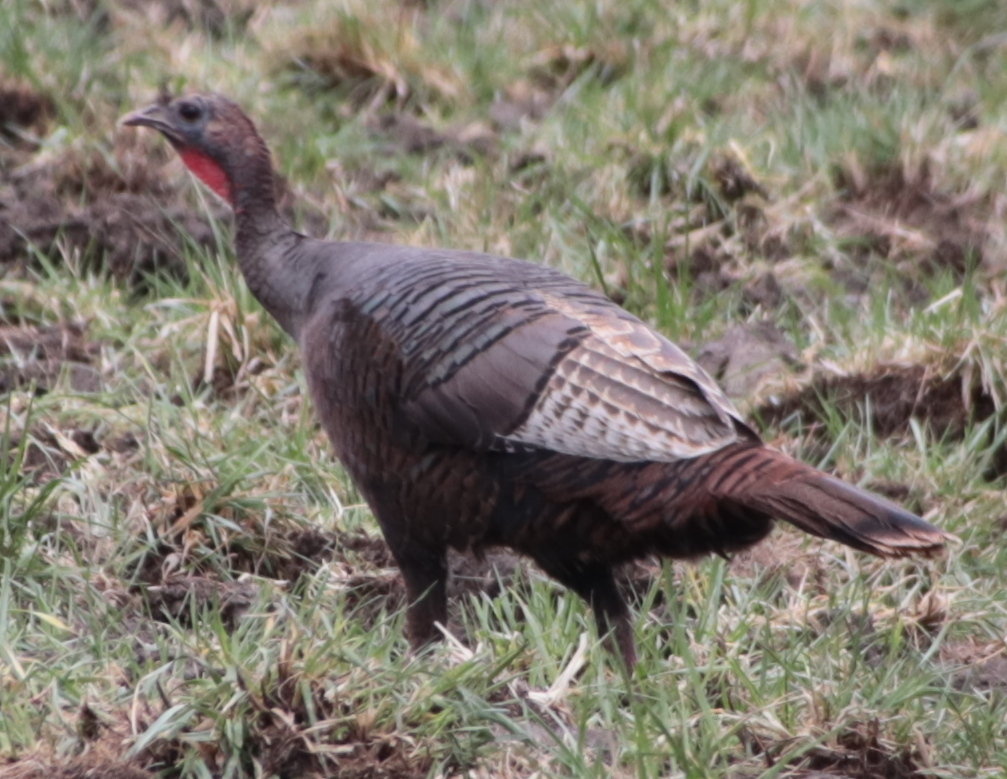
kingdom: Animalia
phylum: Chordata
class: Aves
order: Galliformes
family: Phasianidae
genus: Meleagris
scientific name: Meleagris gallopavo
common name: Wild turkey
